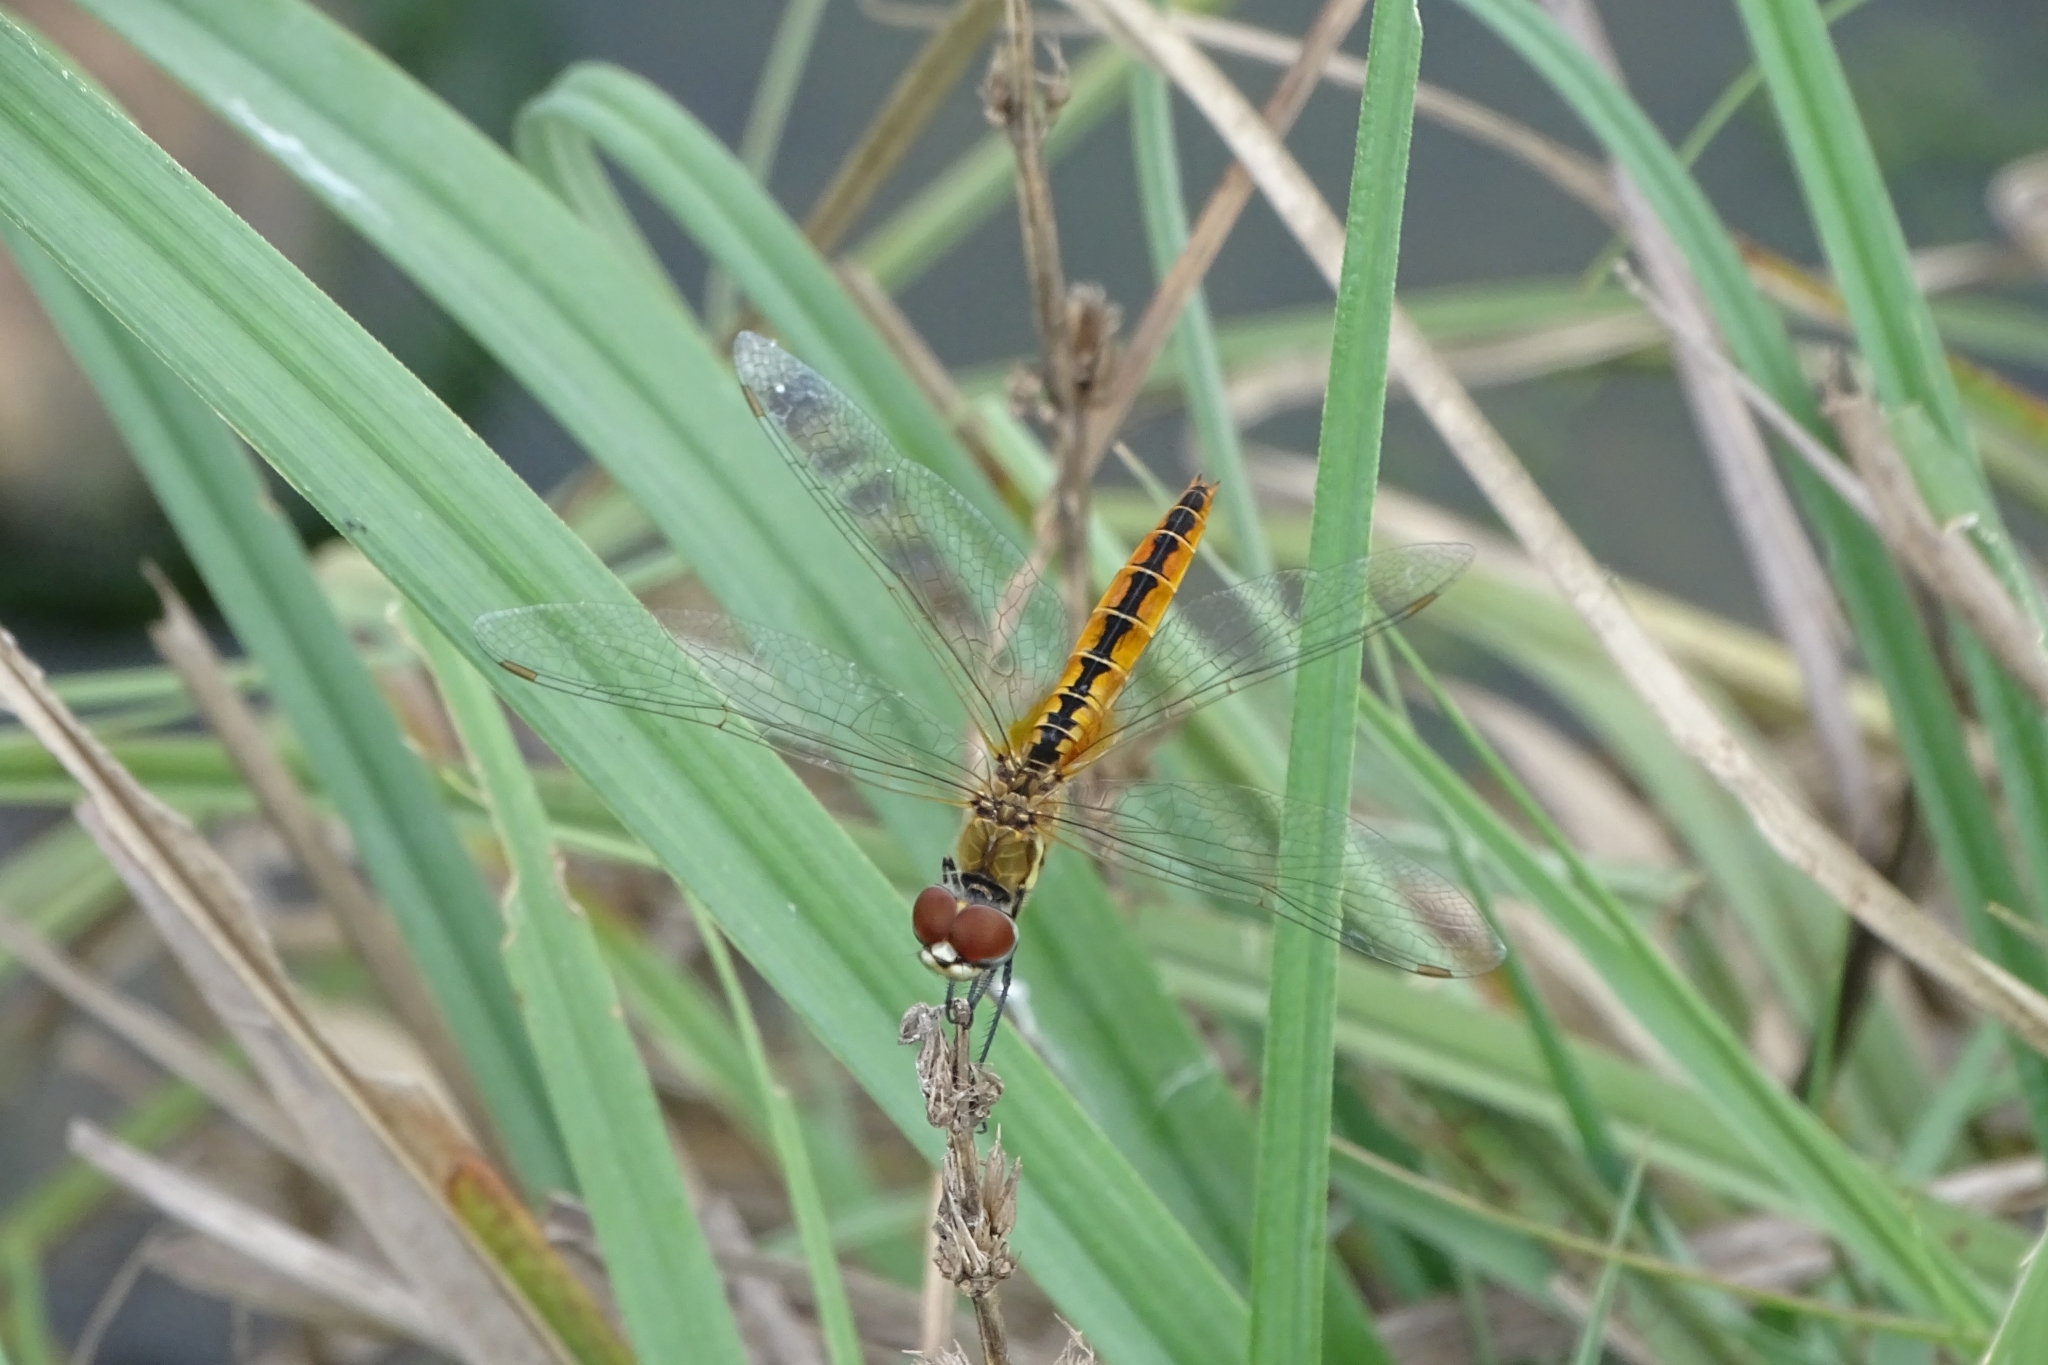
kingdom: Animalia
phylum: Arthropoda
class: Insecta
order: Odonata
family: Libellulidae
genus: Macrodiplax
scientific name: Macrodiplax cora
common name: Coastal glider
